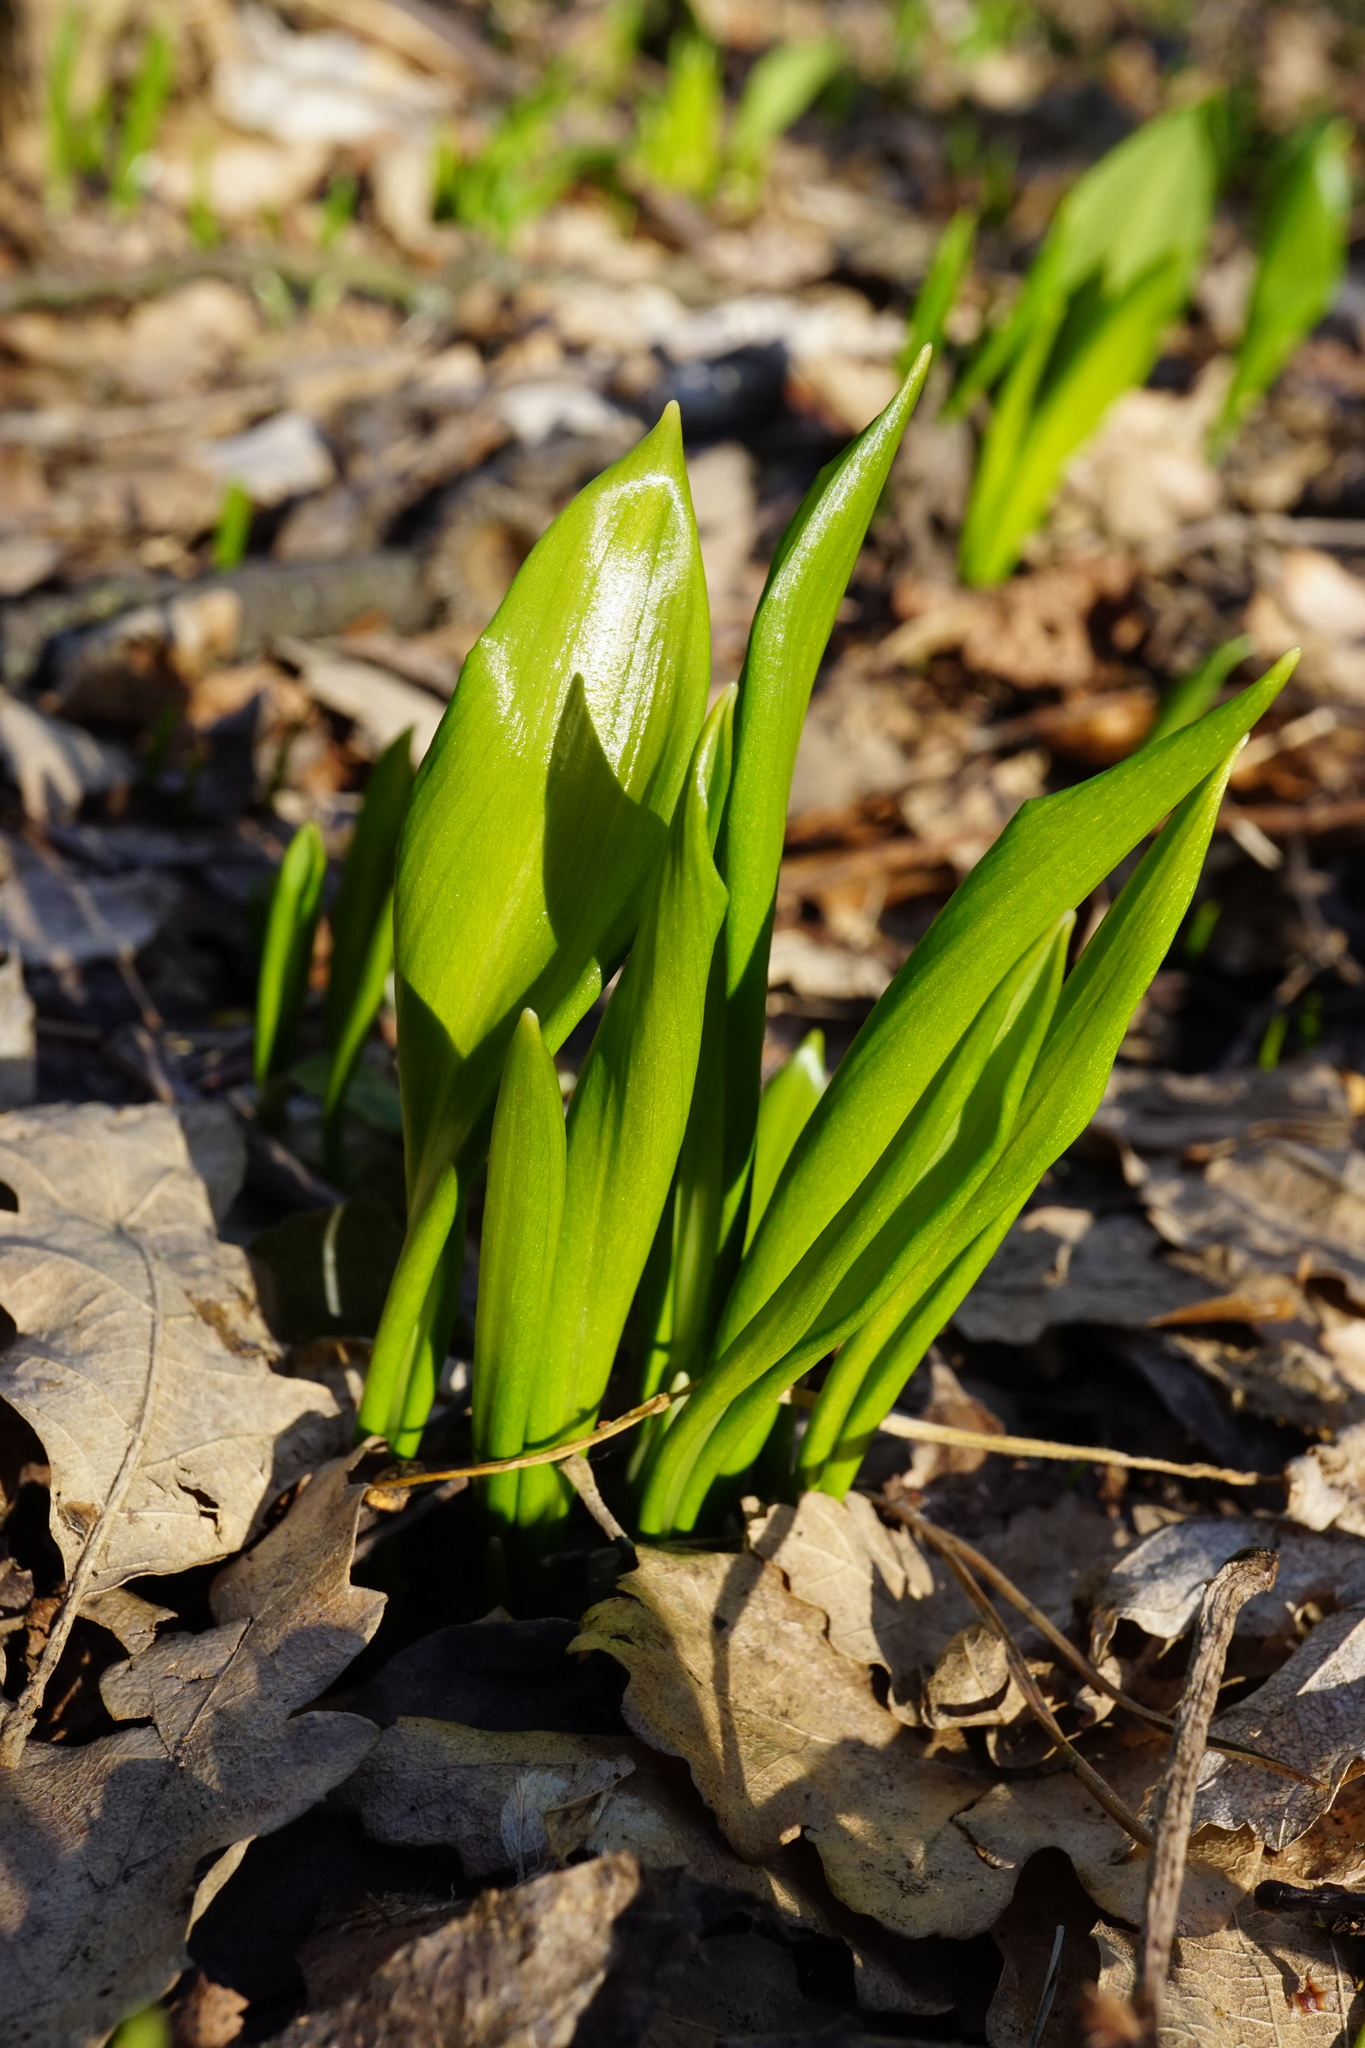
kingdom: Plantae
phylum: Tracheophyta
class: Liliopsida
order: Asparagales
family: Amaryllidaceae
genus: Allium
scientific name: Allium ursinum
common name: Ramsons
